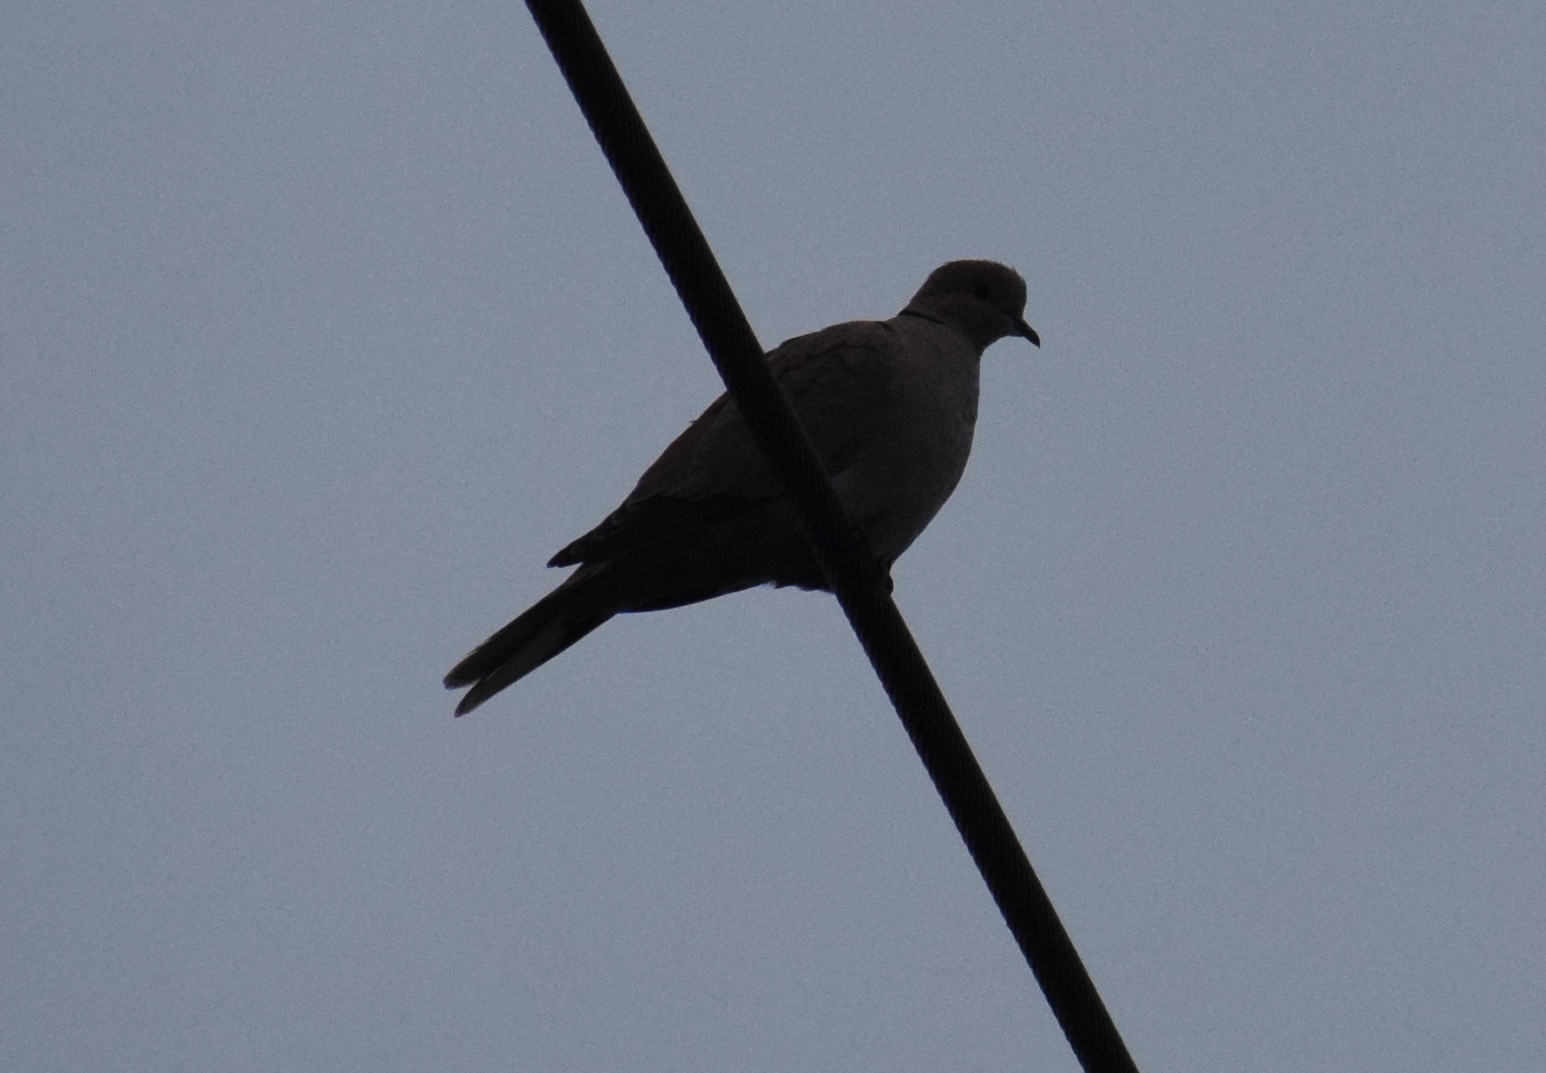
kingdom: Animalia
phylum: Chordata
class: Aves
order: Columbiformes
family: Columbidae
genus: Streptopelia
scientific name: Streptopelia decaocto
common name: Eurasian collared dove
